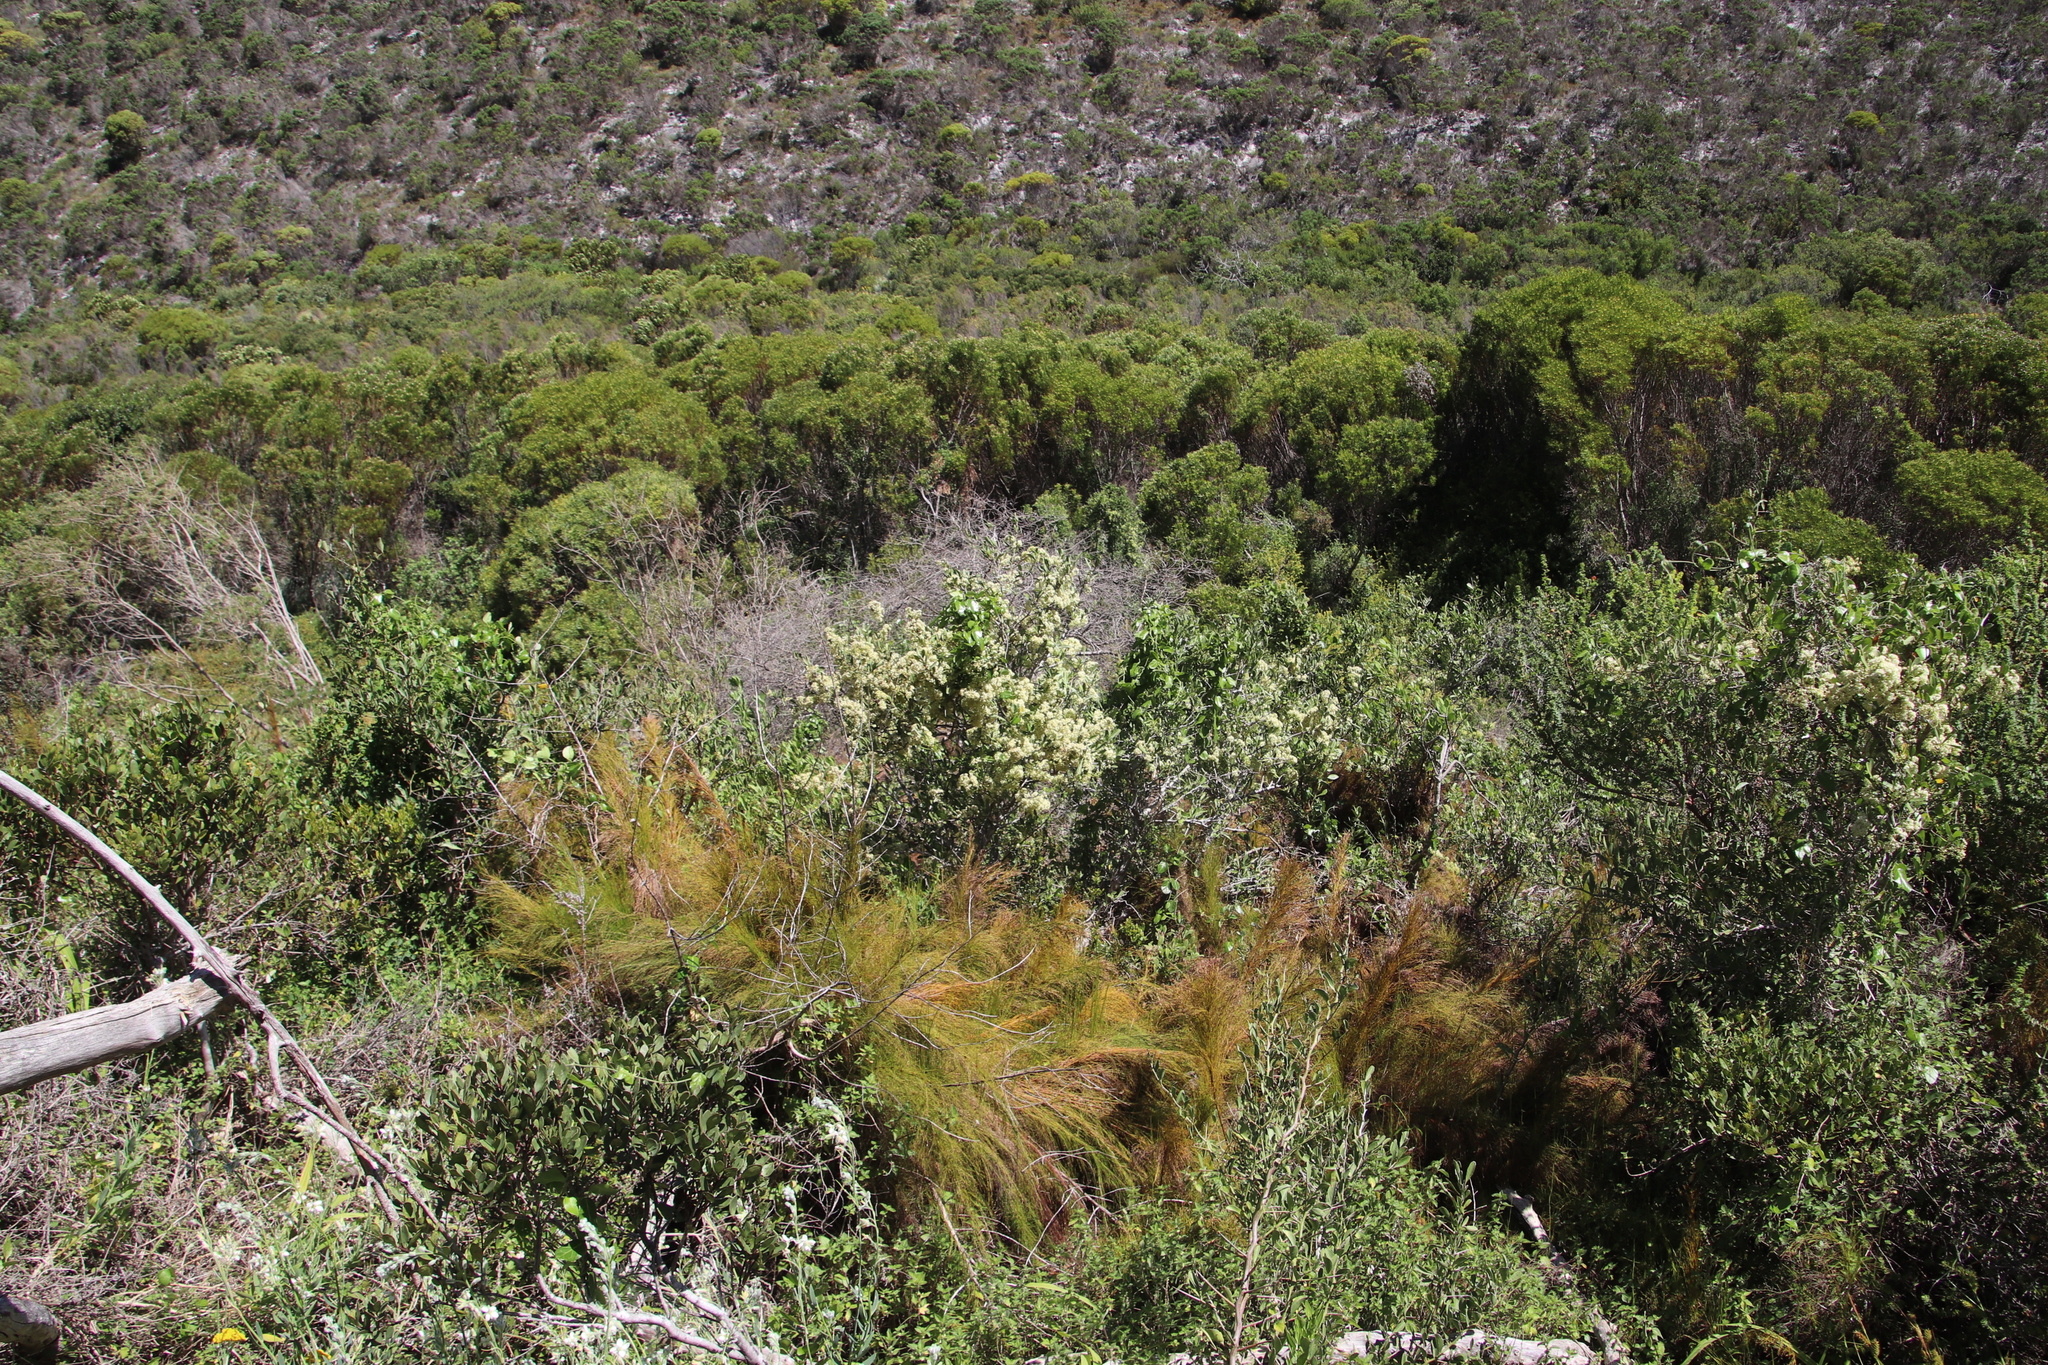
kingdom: Plantae
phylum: Tracheophyta
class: Magnoliopsida
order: Celastrales
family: Celastraceae
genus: Gymnosporia
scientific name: Gymnosporia buxifolia
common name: Common spike-thorn
